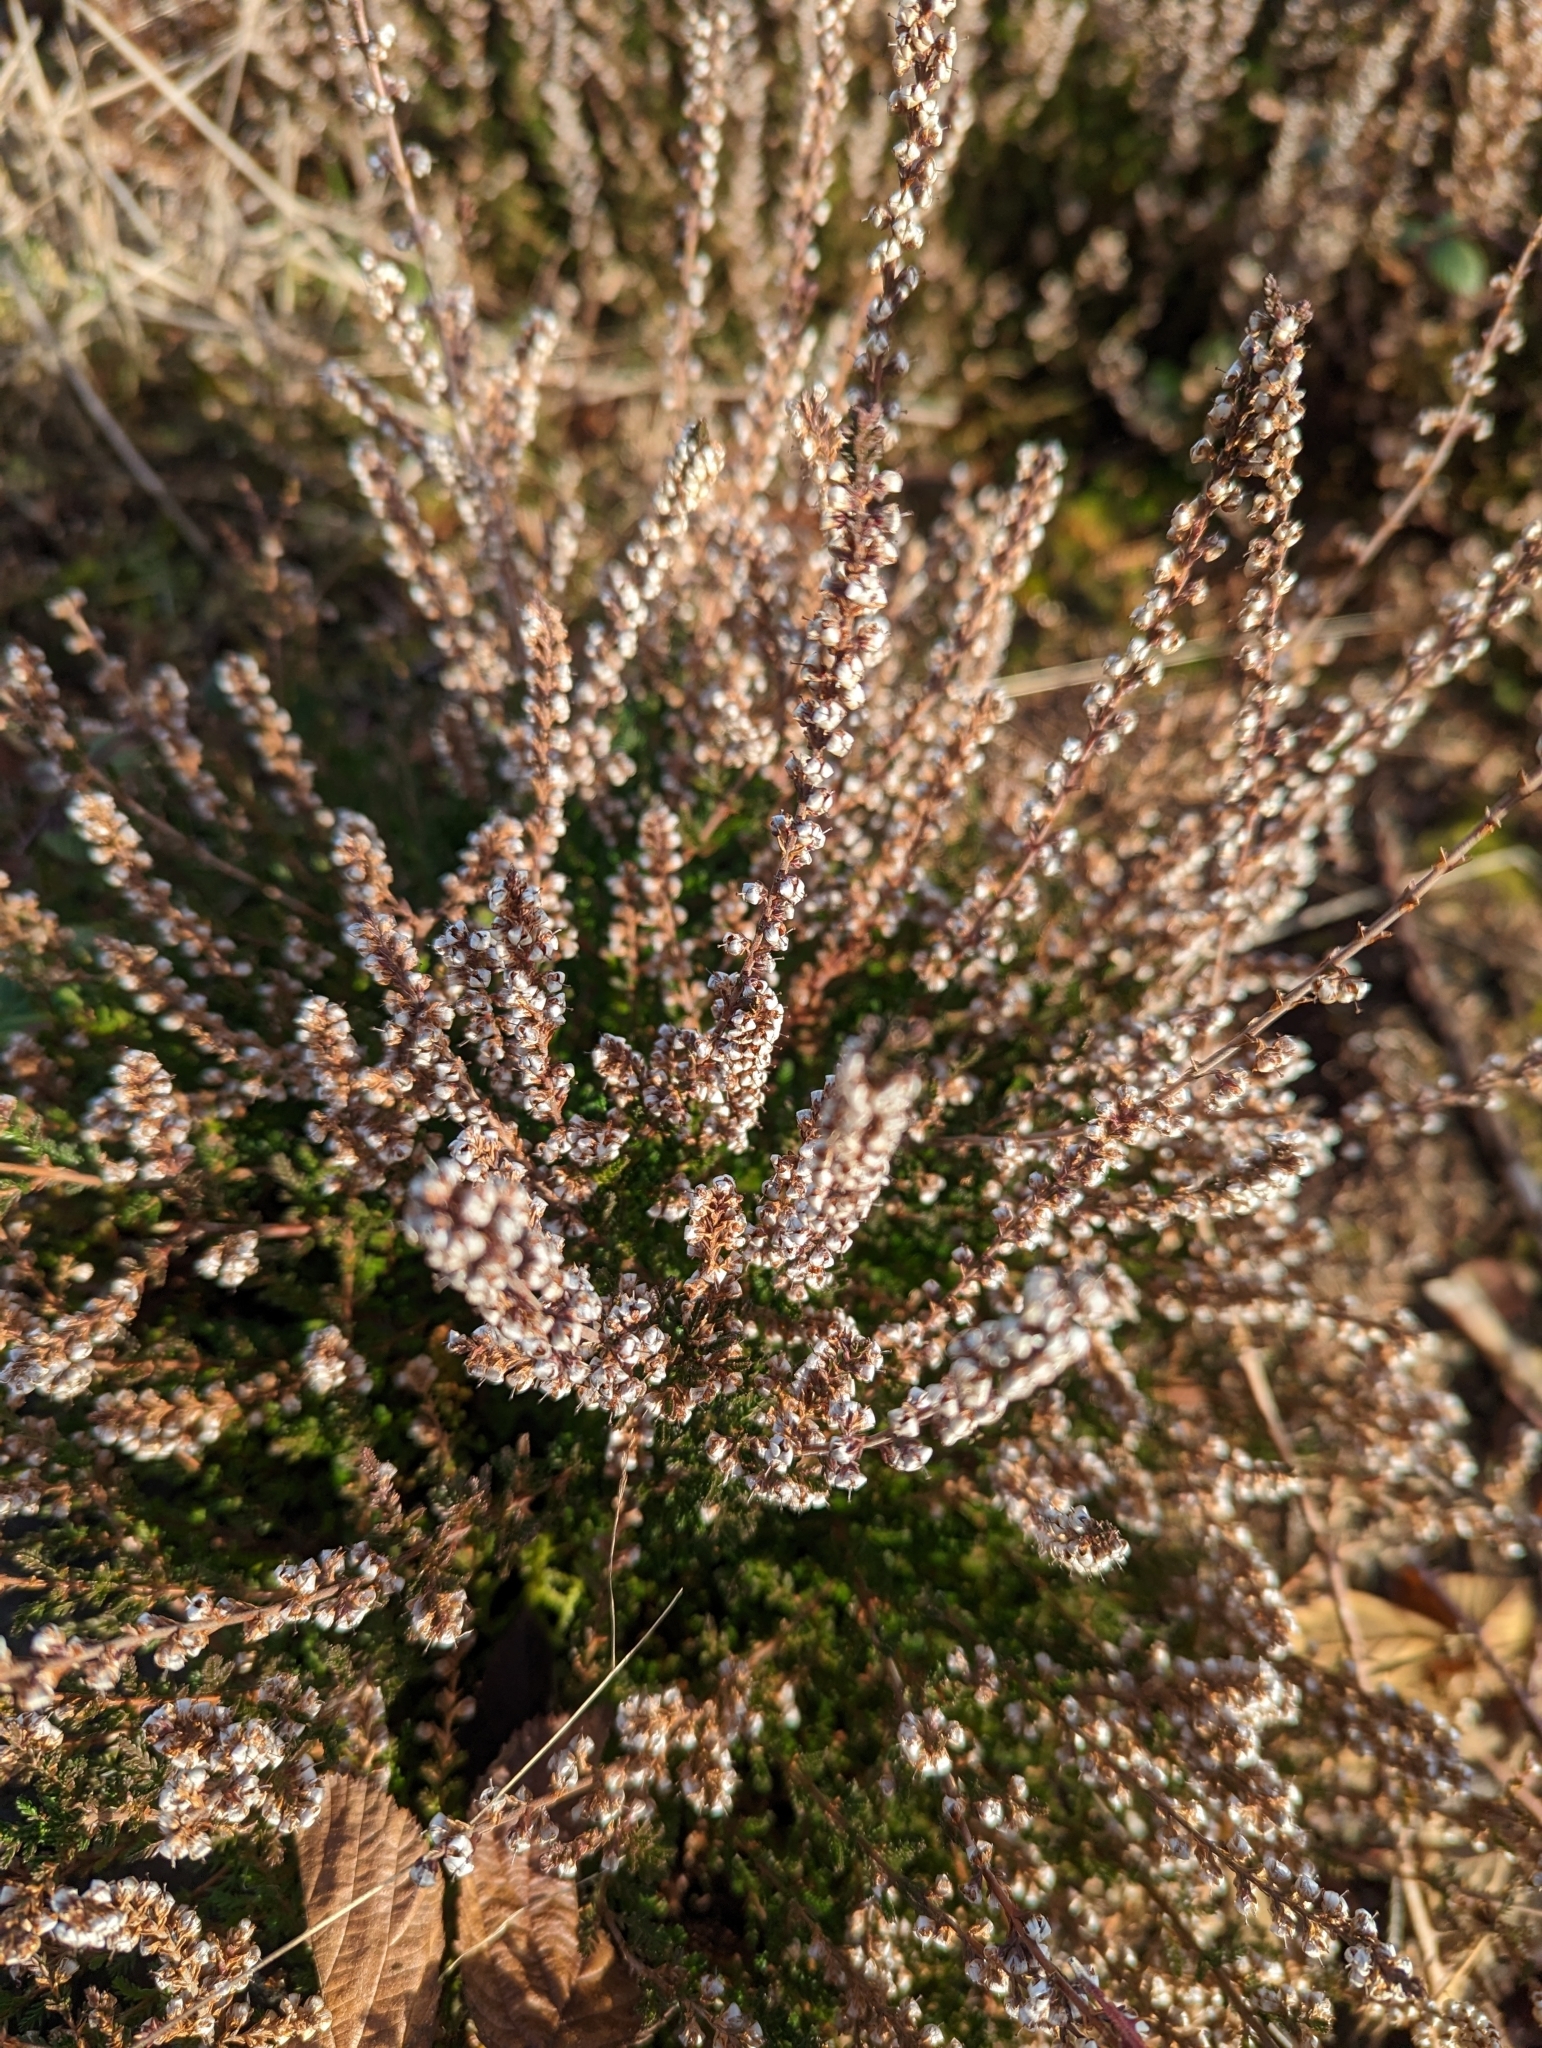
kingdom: Plantae
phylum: Tracheophyta
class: Magnoliopsida
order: Ericales
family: Ericaceae
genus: Calluna
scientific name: Calluna vulgaris
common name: Heather
